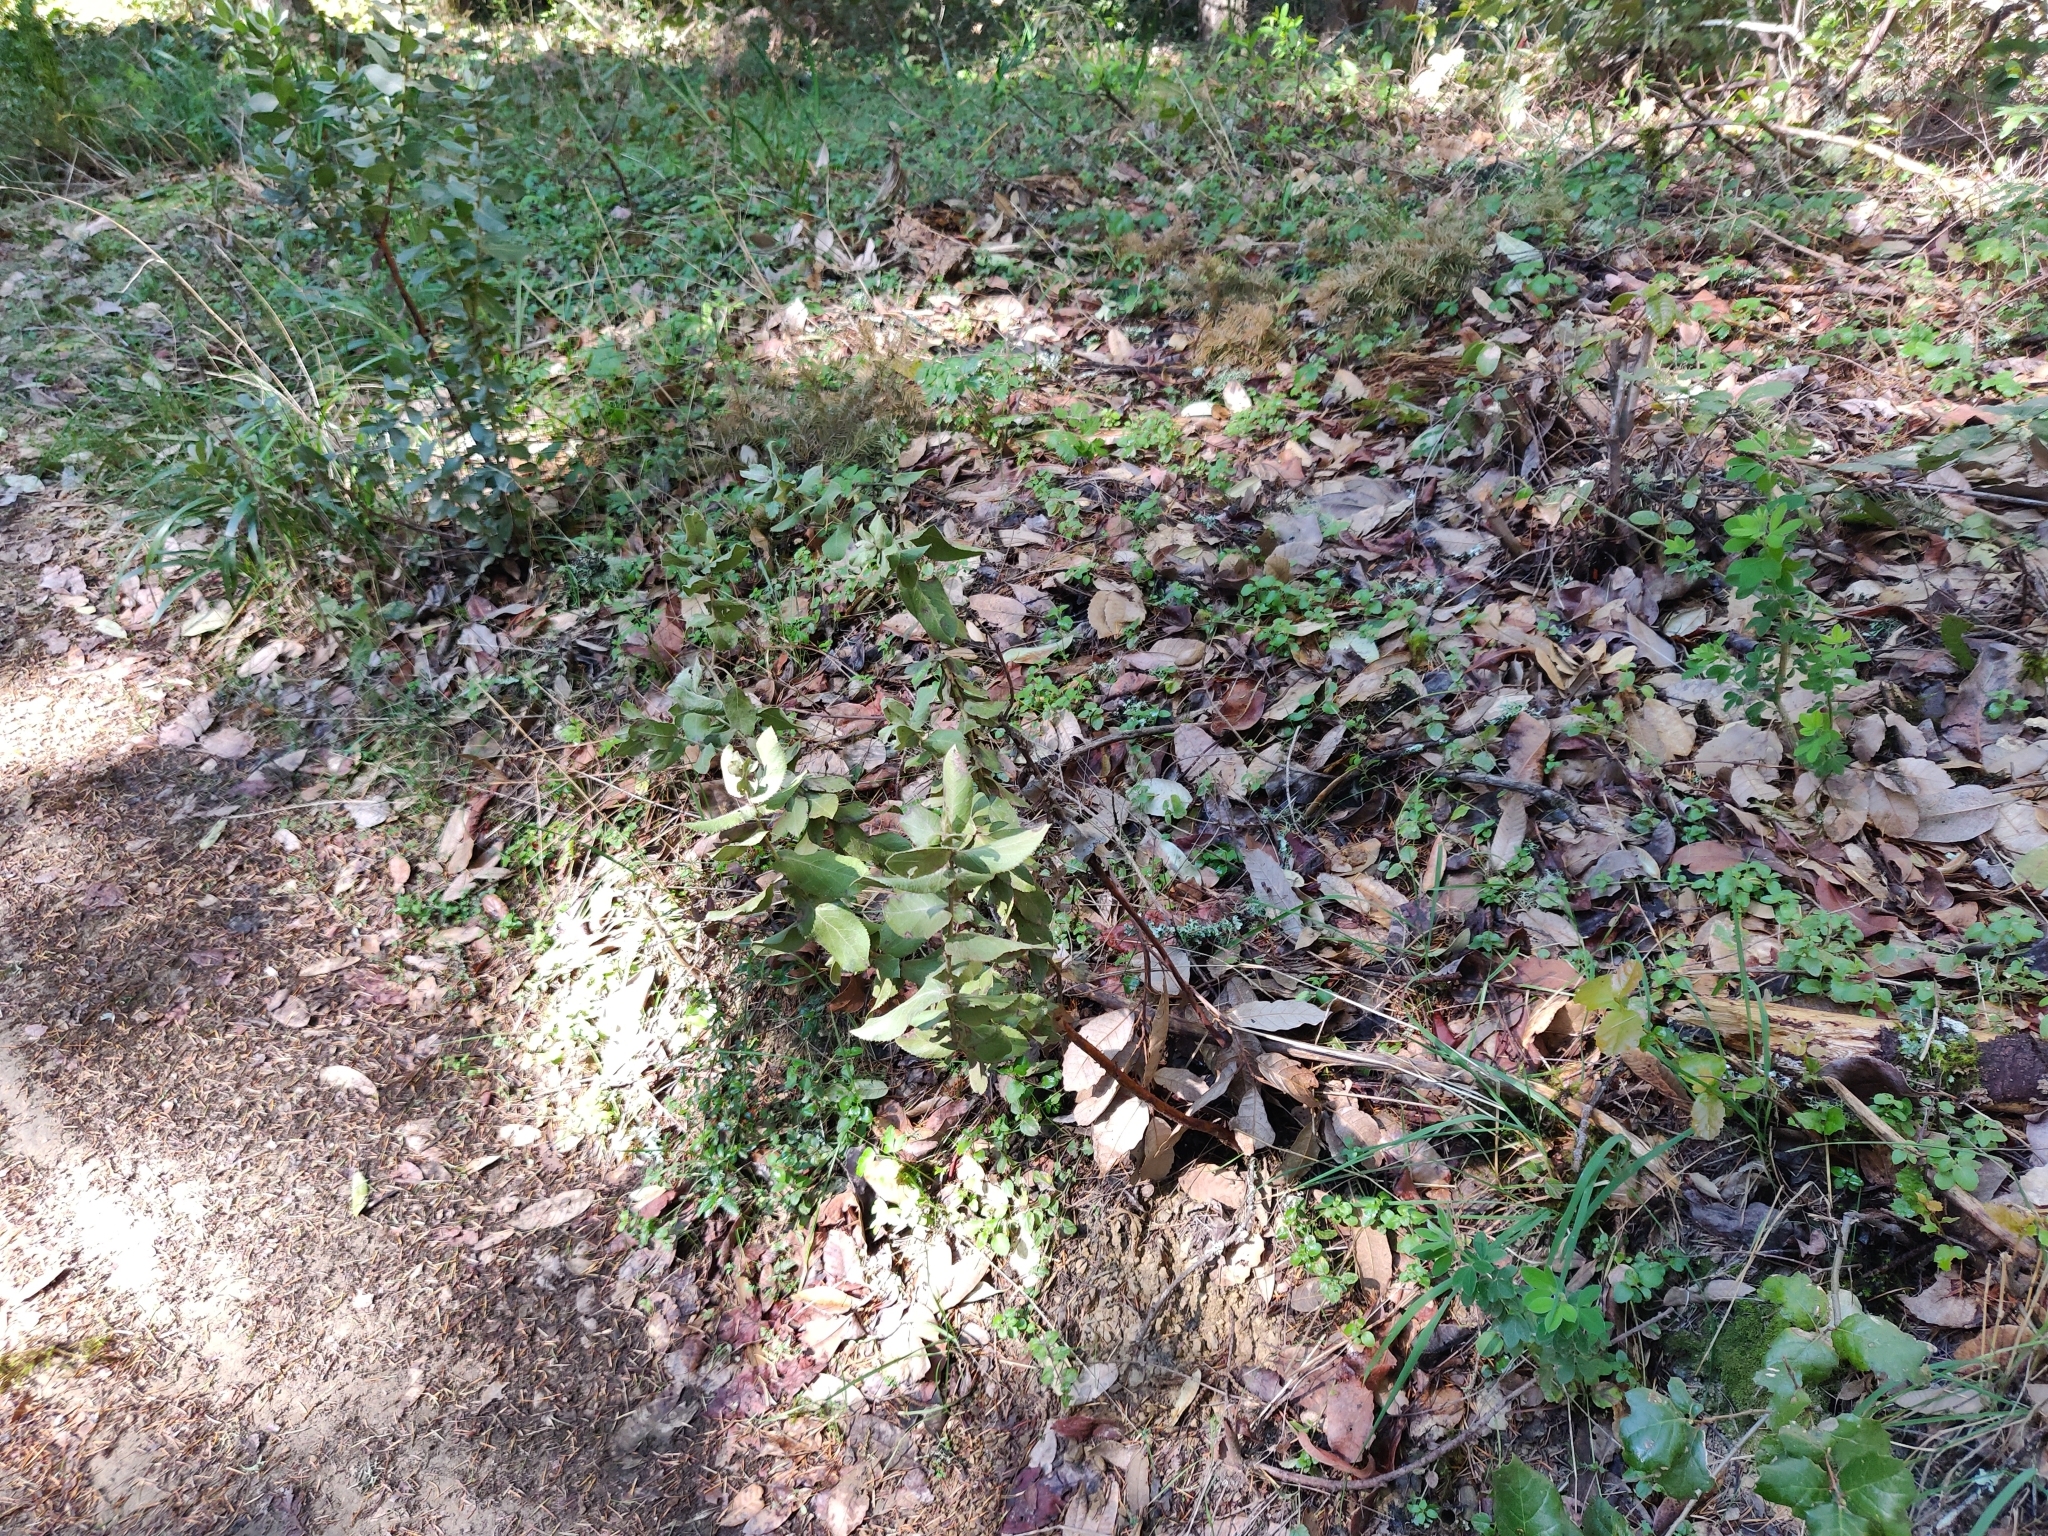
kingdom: Plantae
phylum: Tracheophyta
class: Magnoliopsida
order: Ericales
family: Ericaceae
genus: Arctostaphylos
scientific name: Arctostaphylos regismontana
